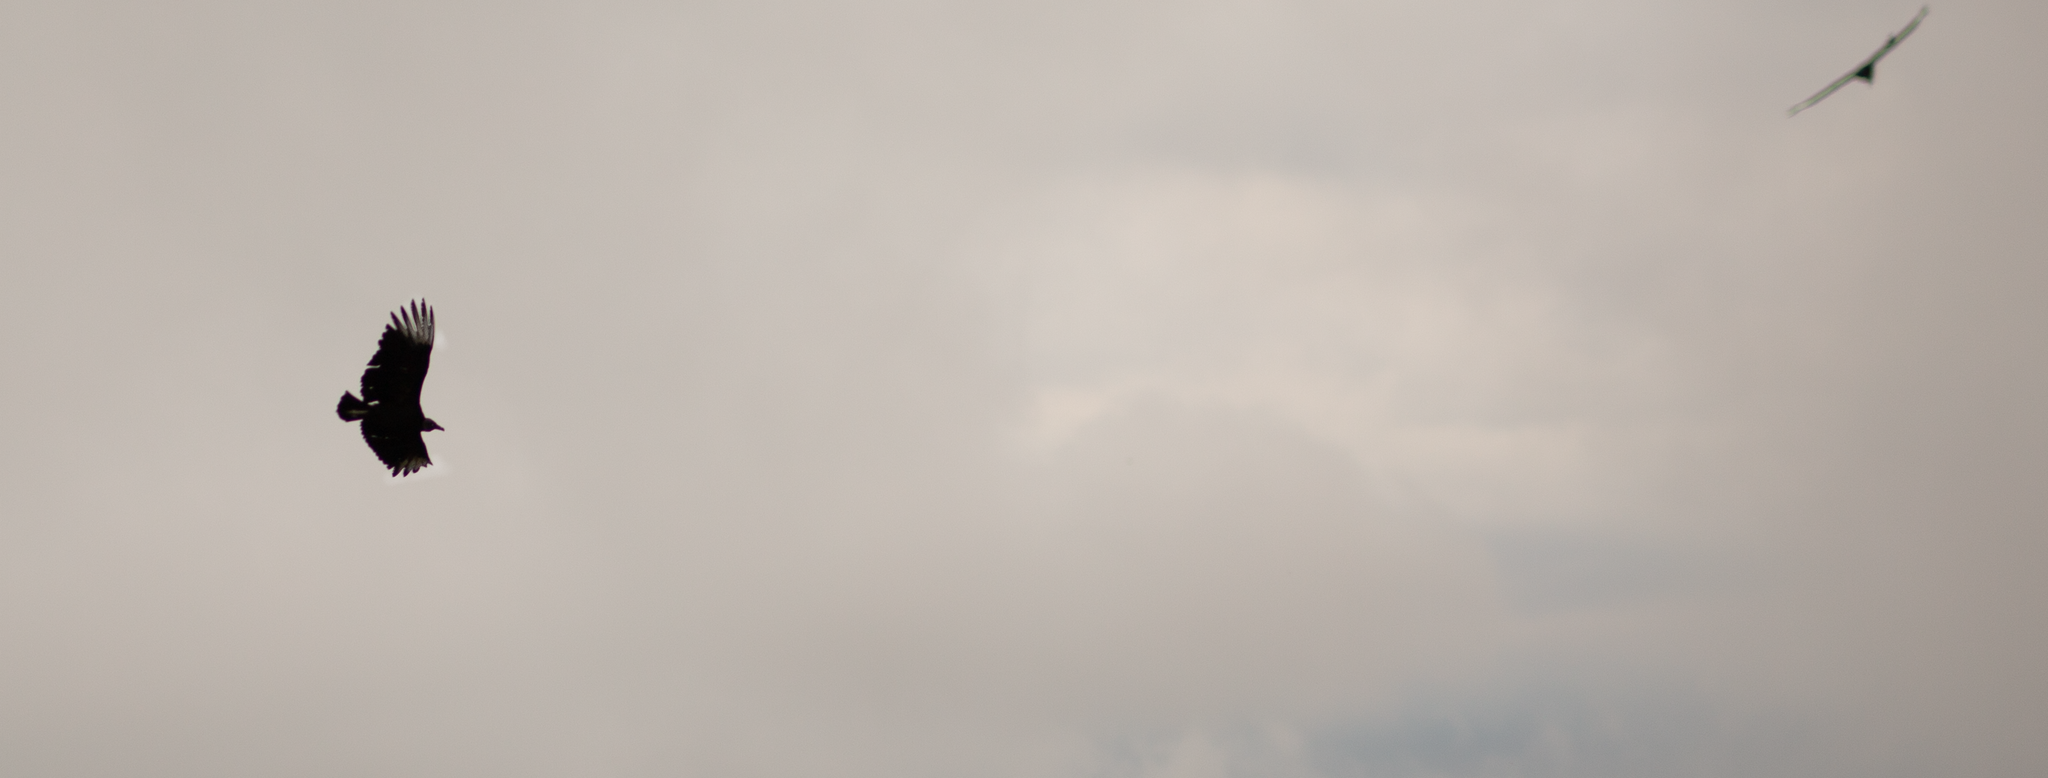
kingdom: Animalia
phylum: Chordata
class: Aves
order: Accipitriformes
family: Cathartidae
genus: Coragyps
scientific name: Coragyps atratus
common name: Black vulture
